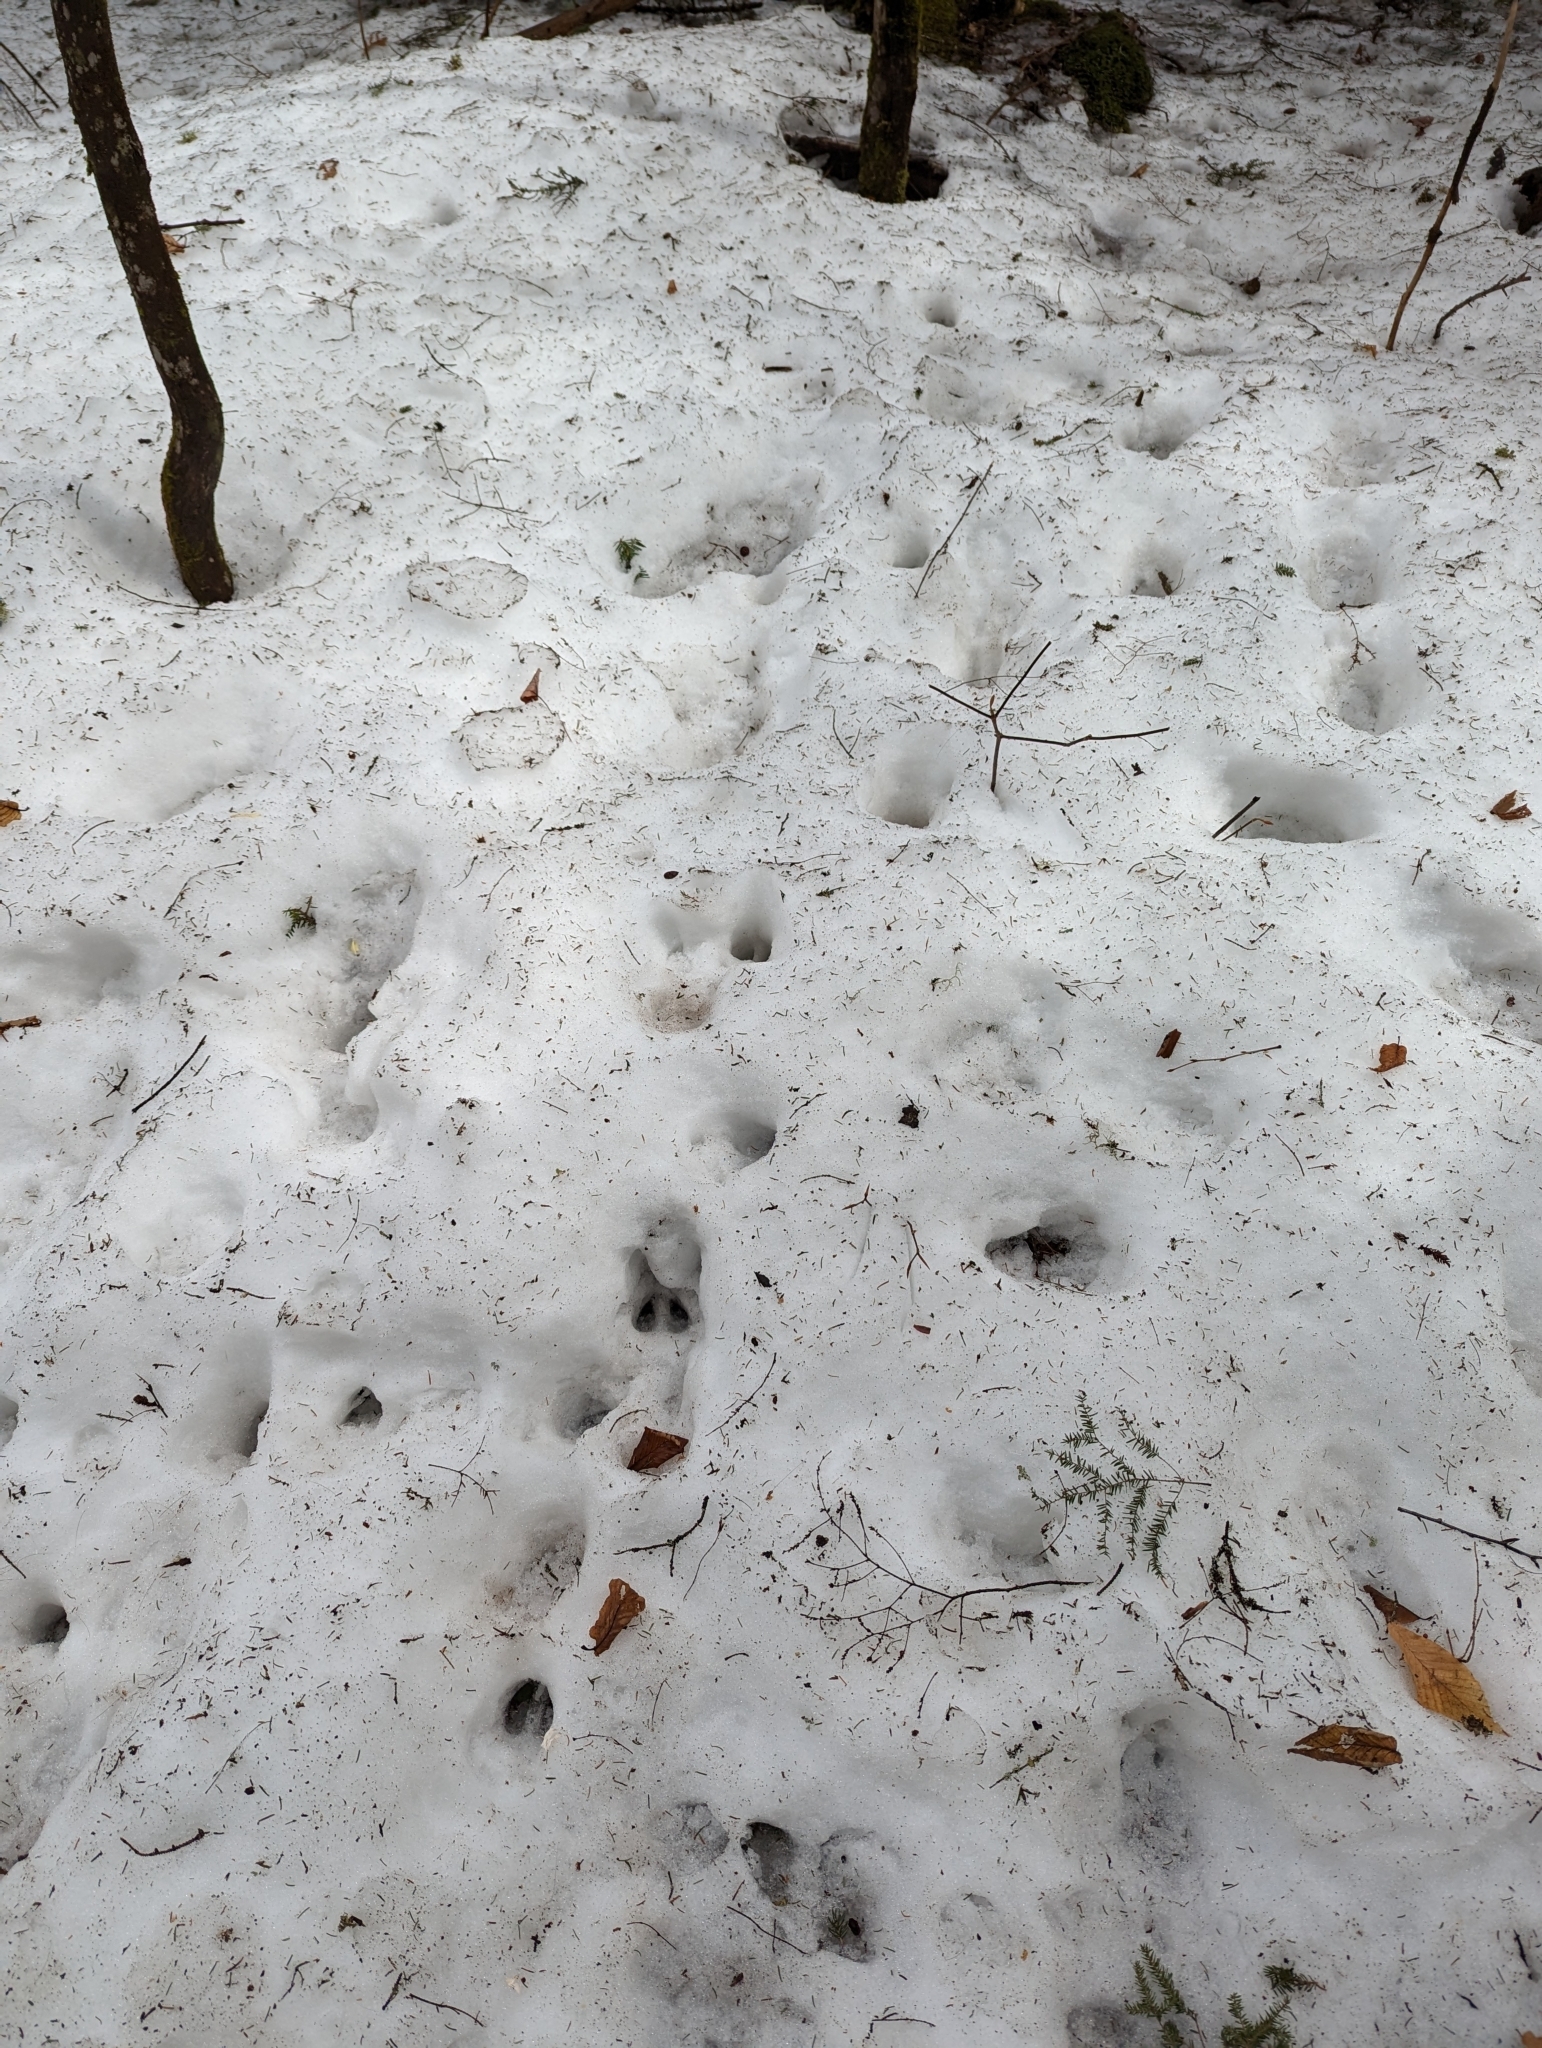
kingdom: Animalia
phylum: Chordata
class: Mammalia
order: Artiodactyla
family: Cervidae
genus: Odocoileus
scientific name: Odocoileus virginianus
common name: White-tailed deer
